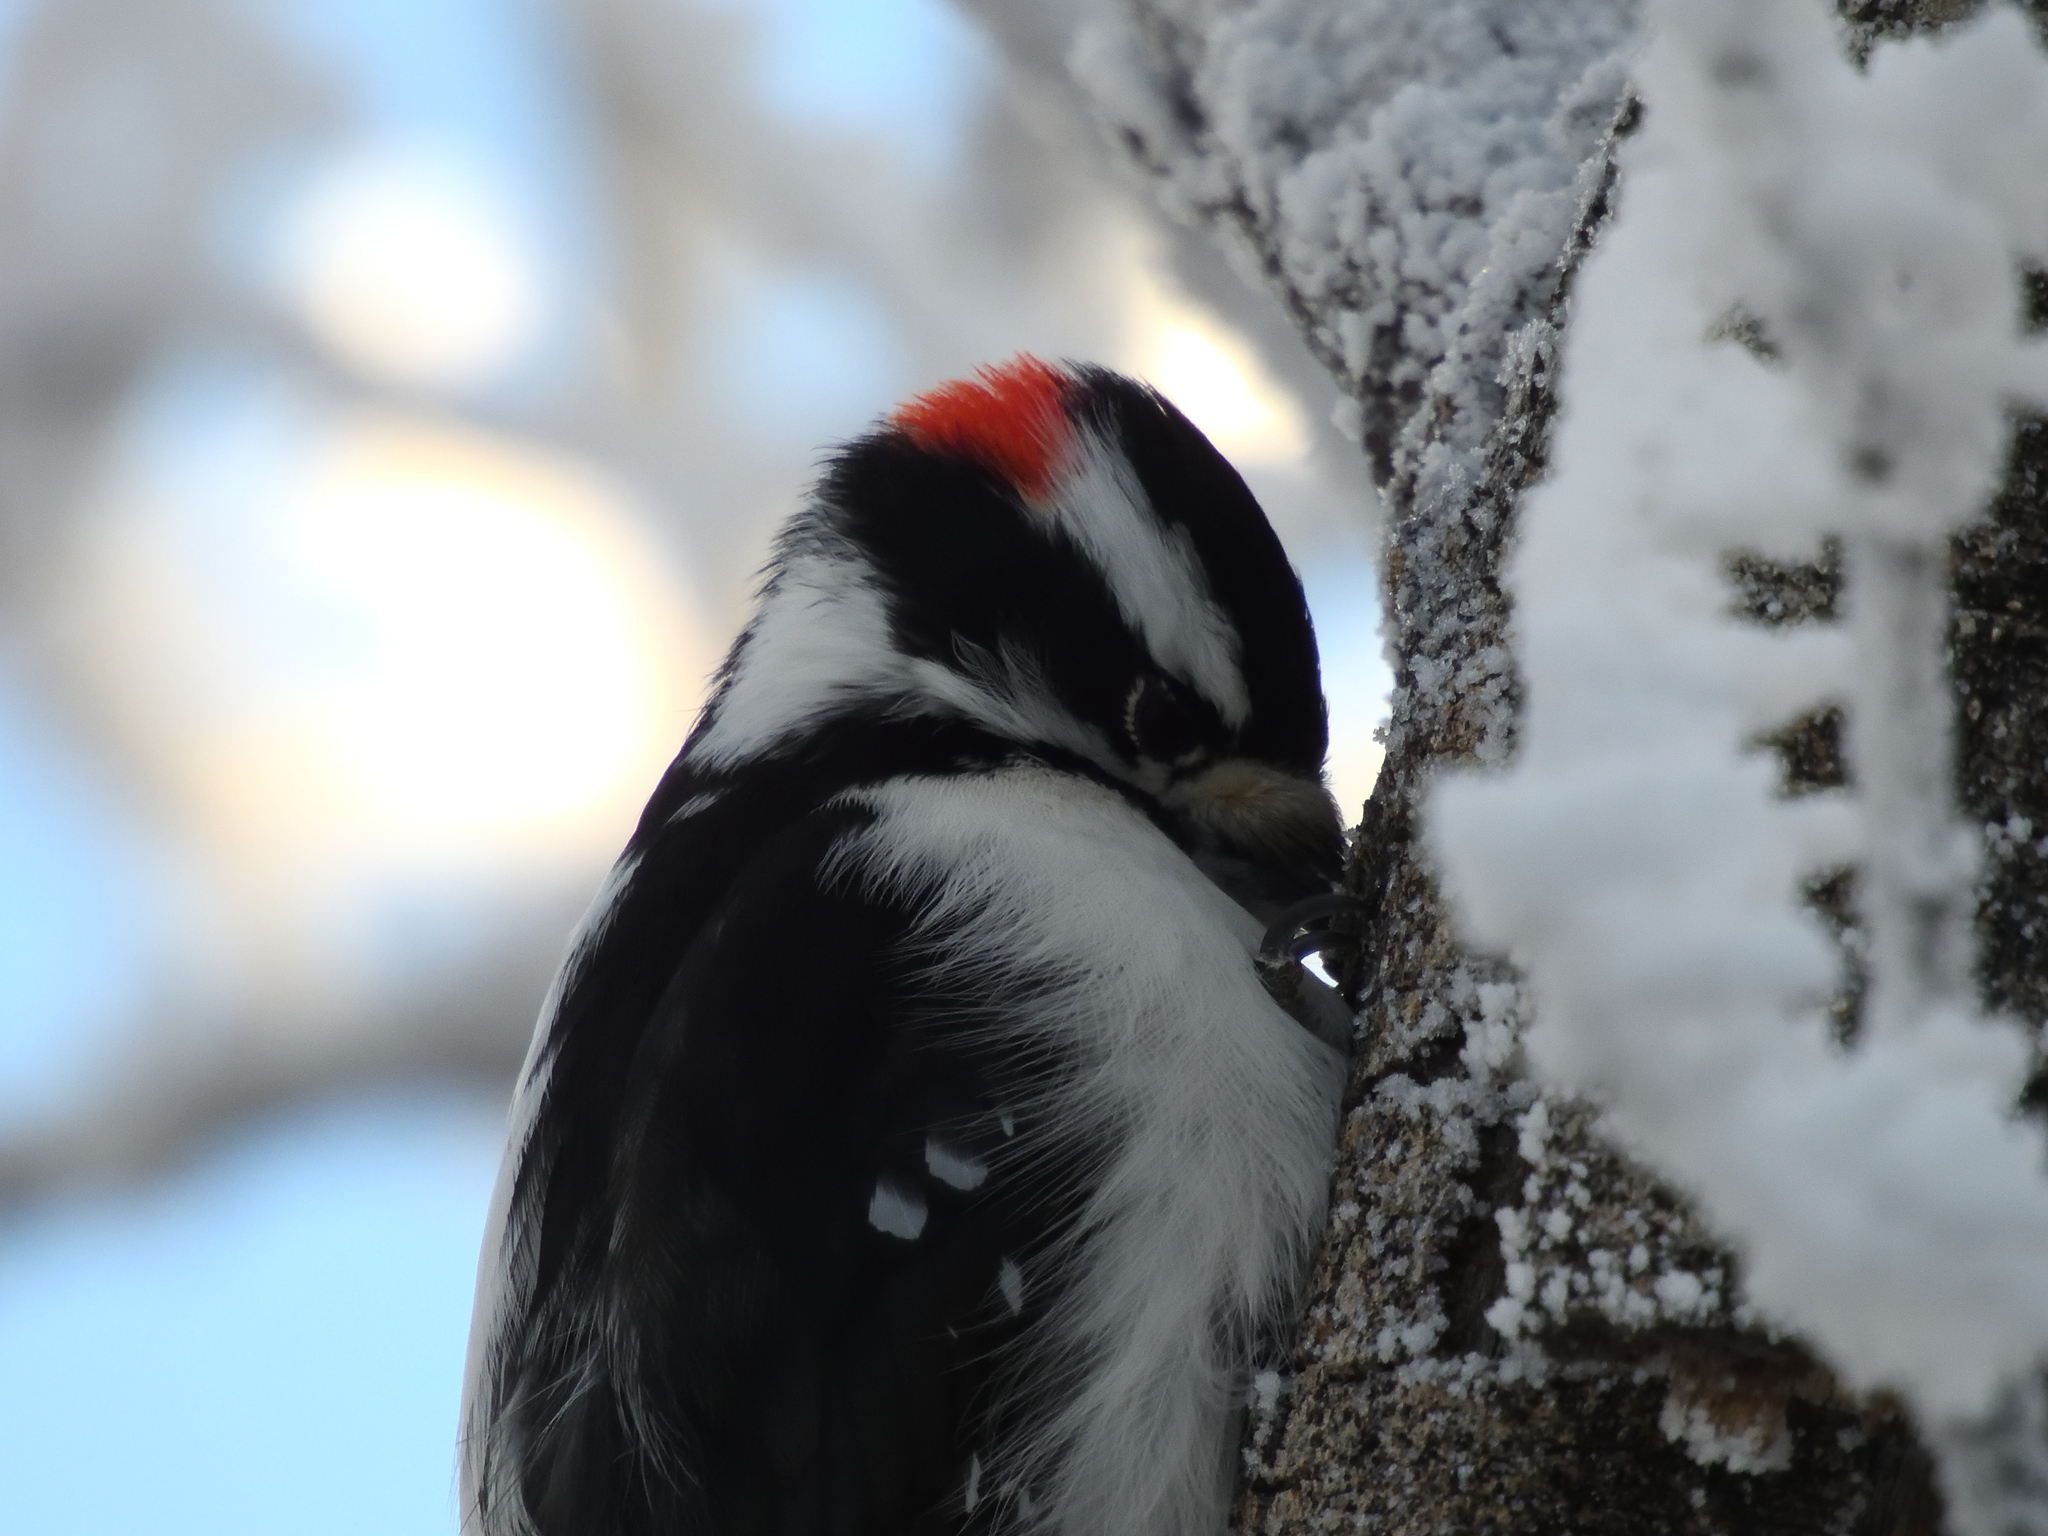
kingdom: Animalia
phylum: Chordata
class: Aves
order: Piciformes
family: Picidae
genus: Dryobates
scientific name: Dryobates pubescens
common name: Downy woodpecker
